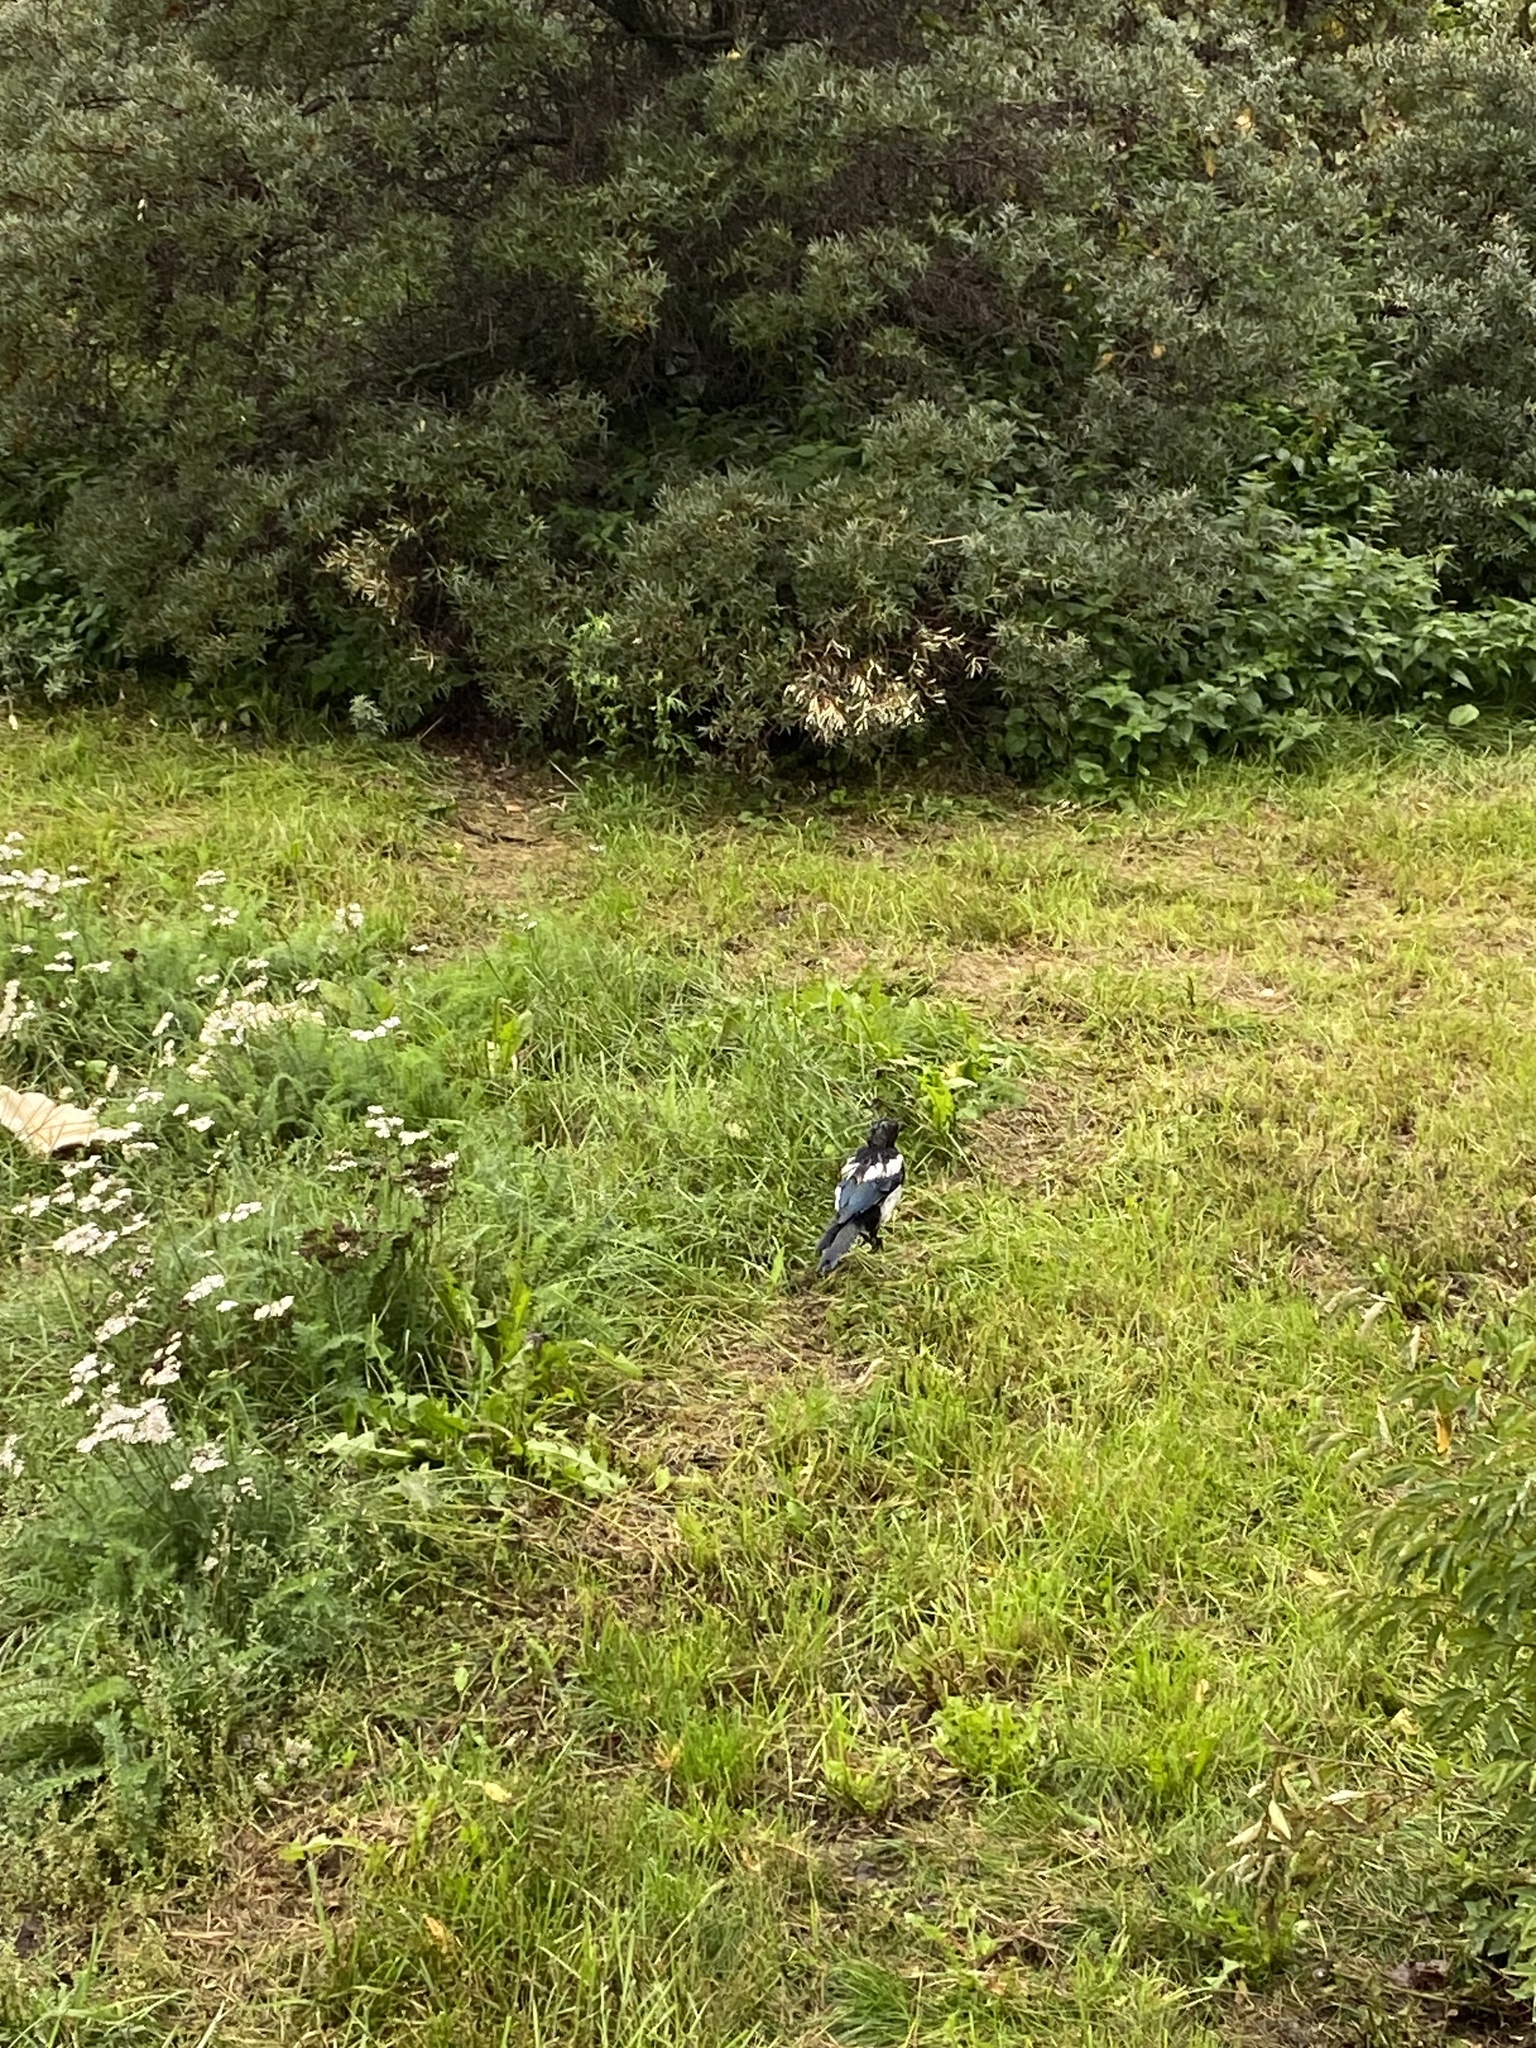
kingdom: Animalia
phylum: Chordata
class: Aves
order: Passeriformes
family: Corvidae
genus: Pica
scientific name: Pica pica
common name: Eurasian magpie
